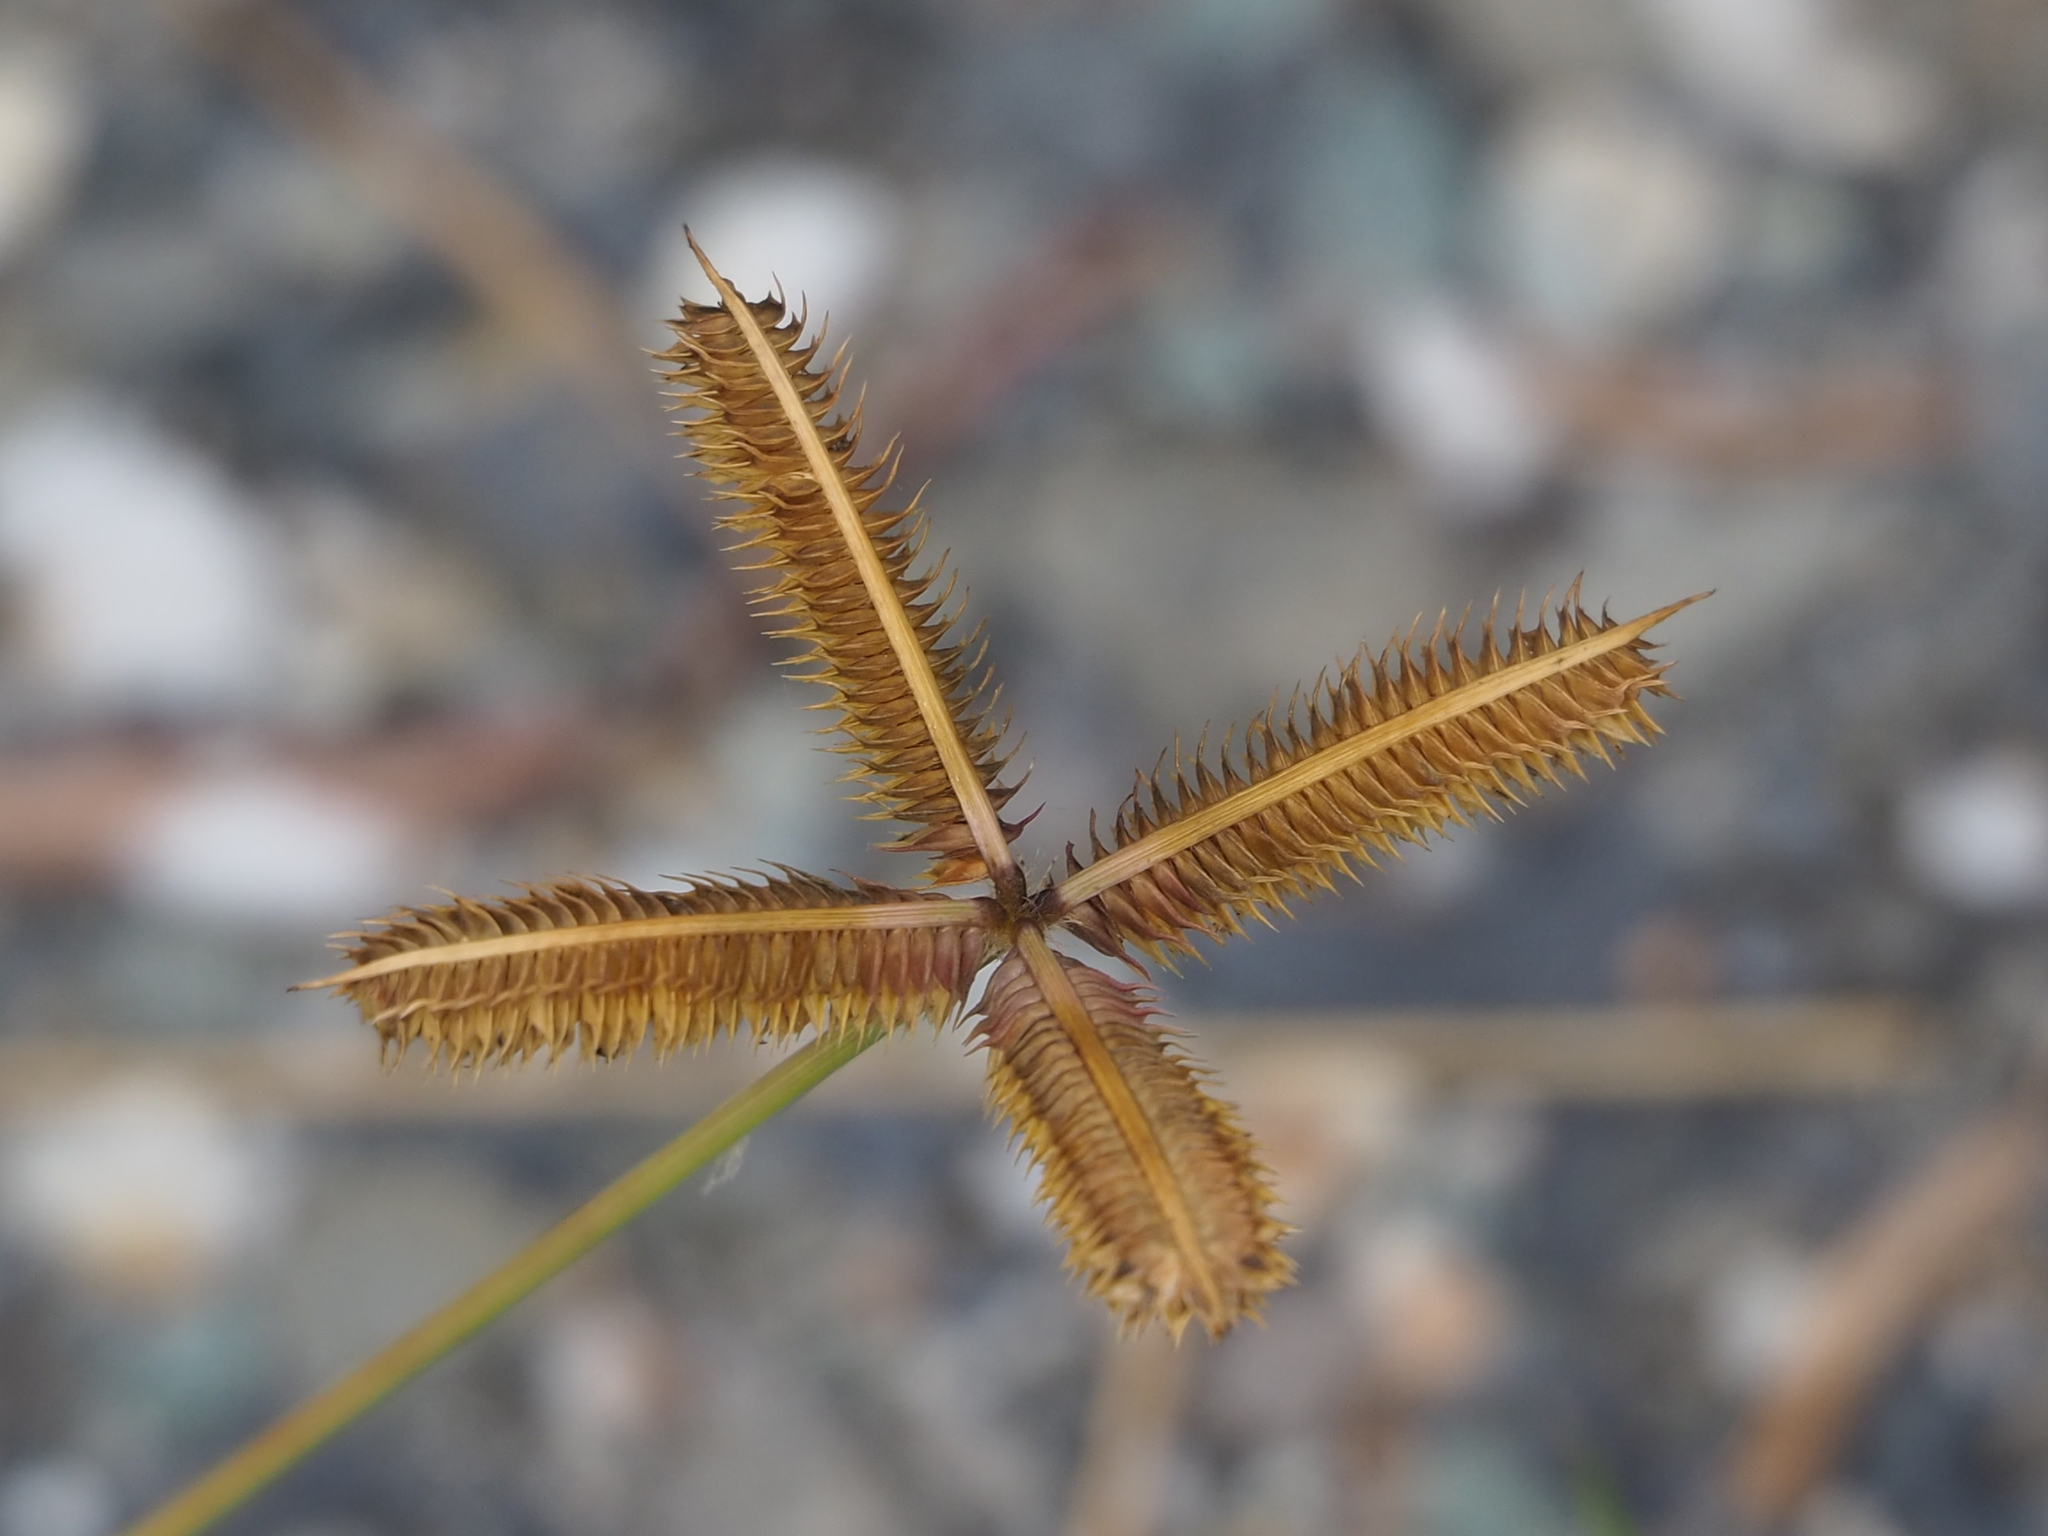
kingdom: Plantae
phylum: Tracheophyta
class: Liliopsida
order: Poales
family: Poaceae
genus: Dactyloctenium
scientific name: Dactyloctenium aegyptium
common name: Egyptian grass
